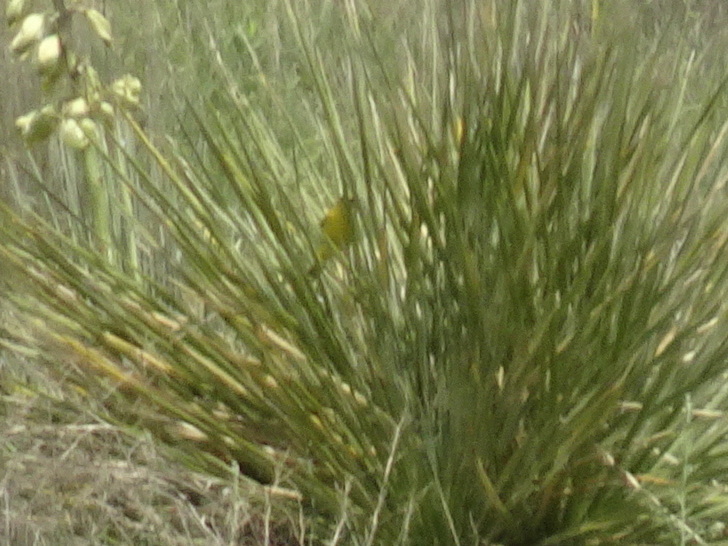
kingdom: Animalia
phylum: Chordata
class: Aves
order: Passeriformes
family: Icteridae
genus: Icterus
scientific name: Icterus spurius
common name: Orchard oriole
